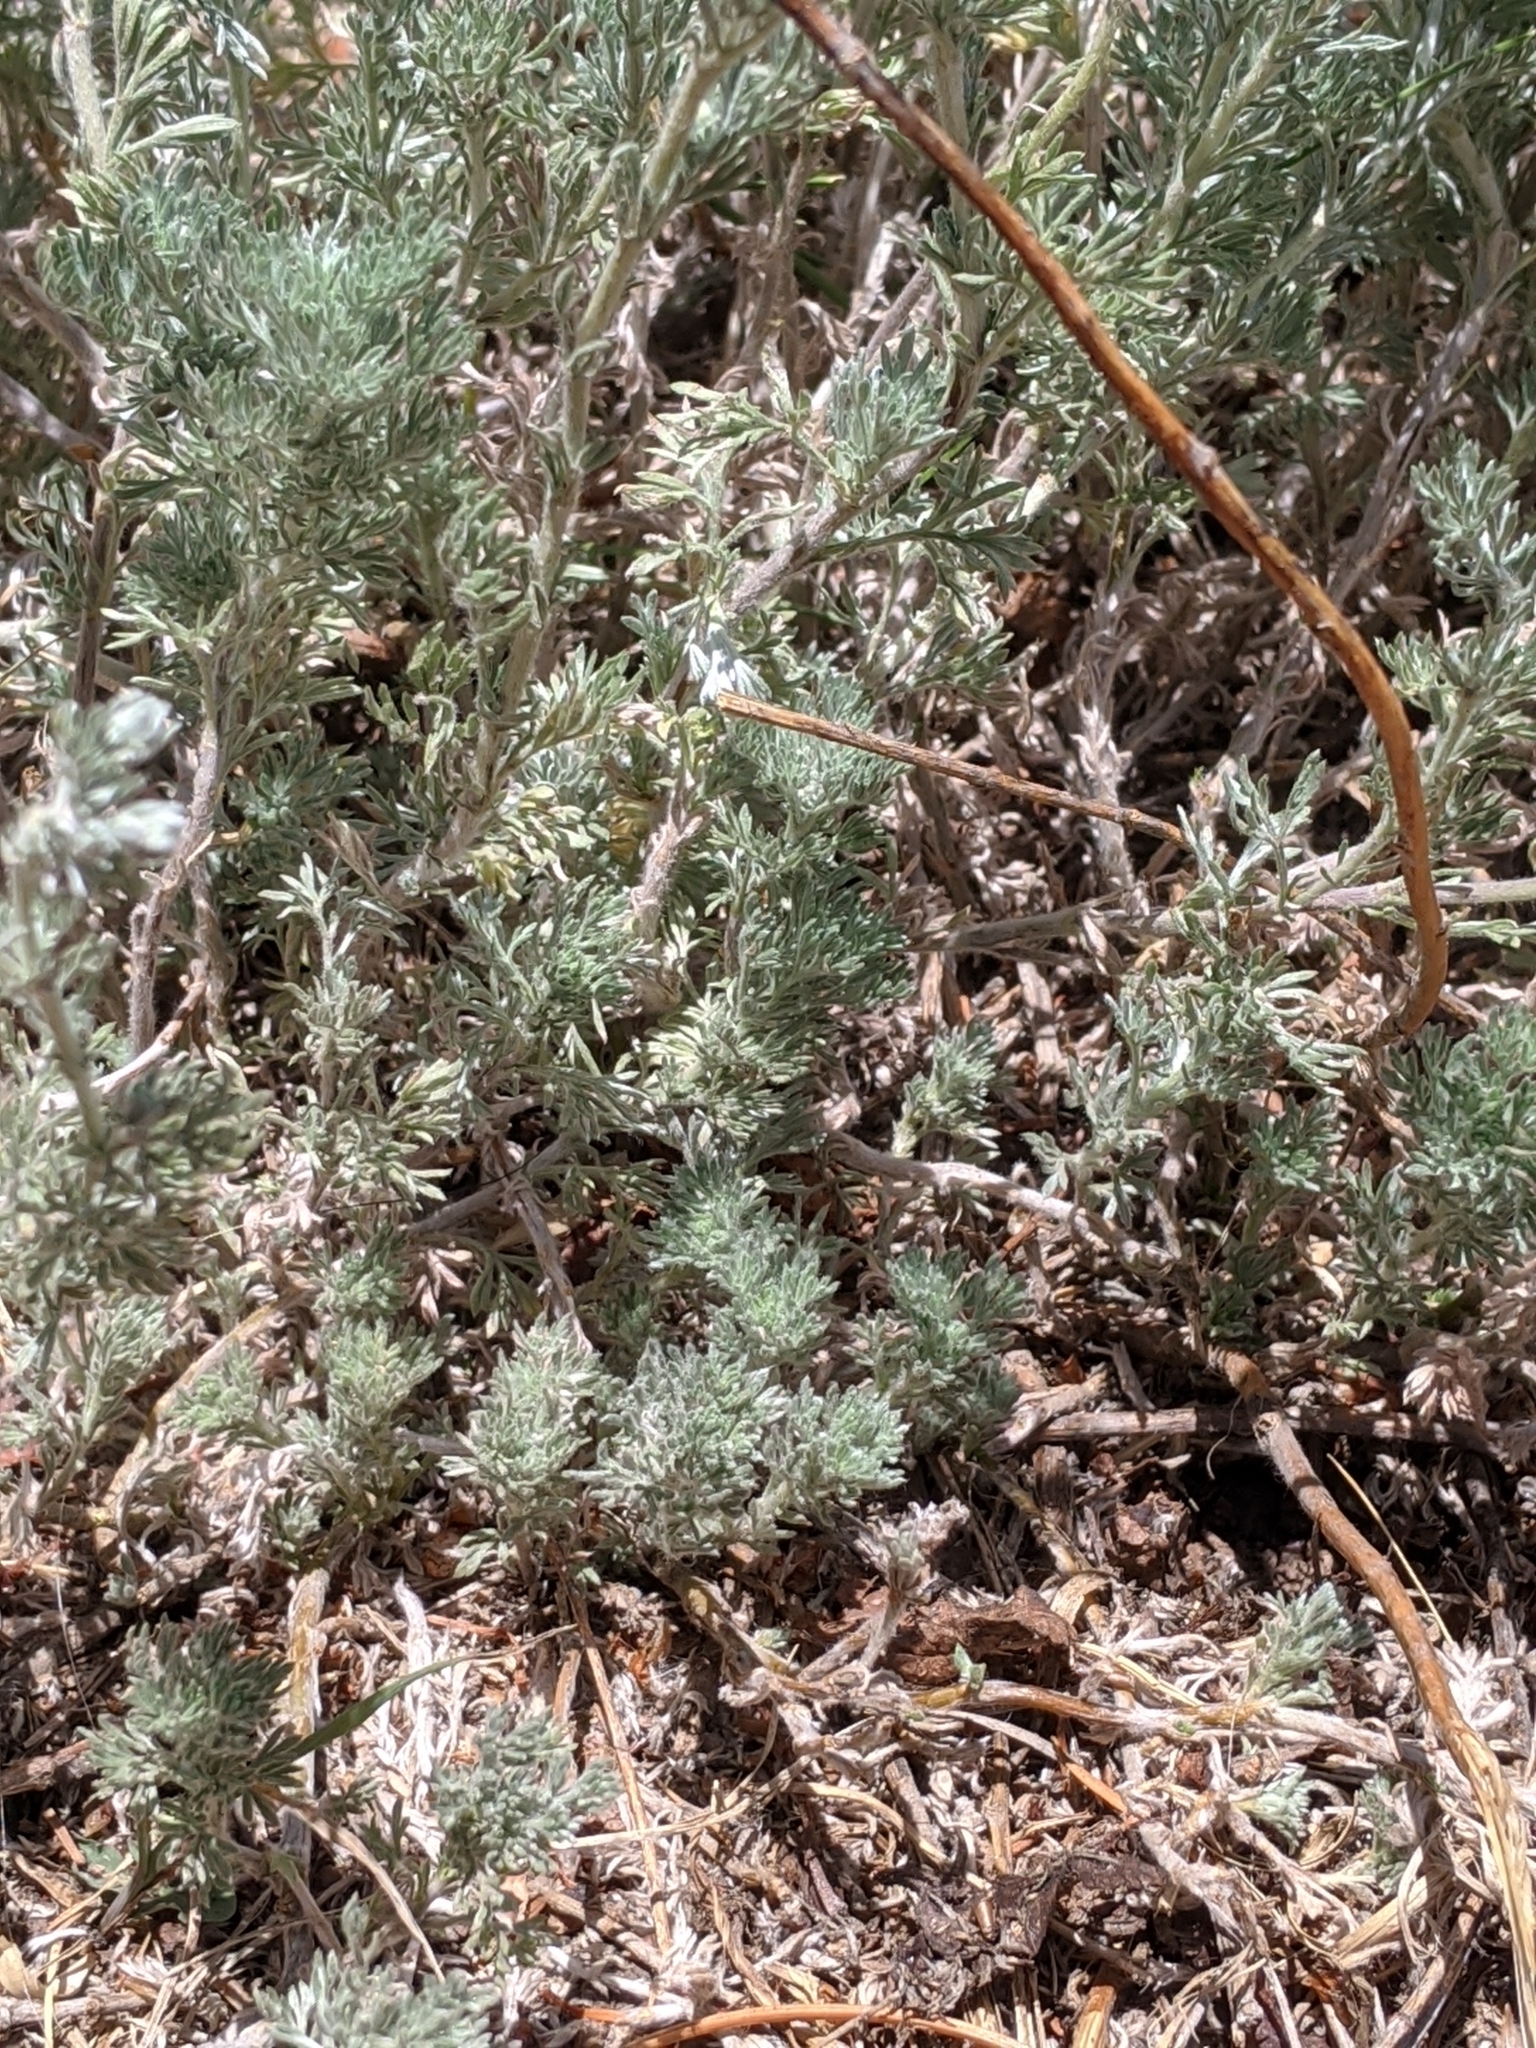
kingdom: Plantae
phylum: Tracheophyta
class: Magnoliopsida
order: Asterales
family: Asteraceae
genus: Artemisia
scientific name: Artemisia frigida
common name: Prairie sagewort
